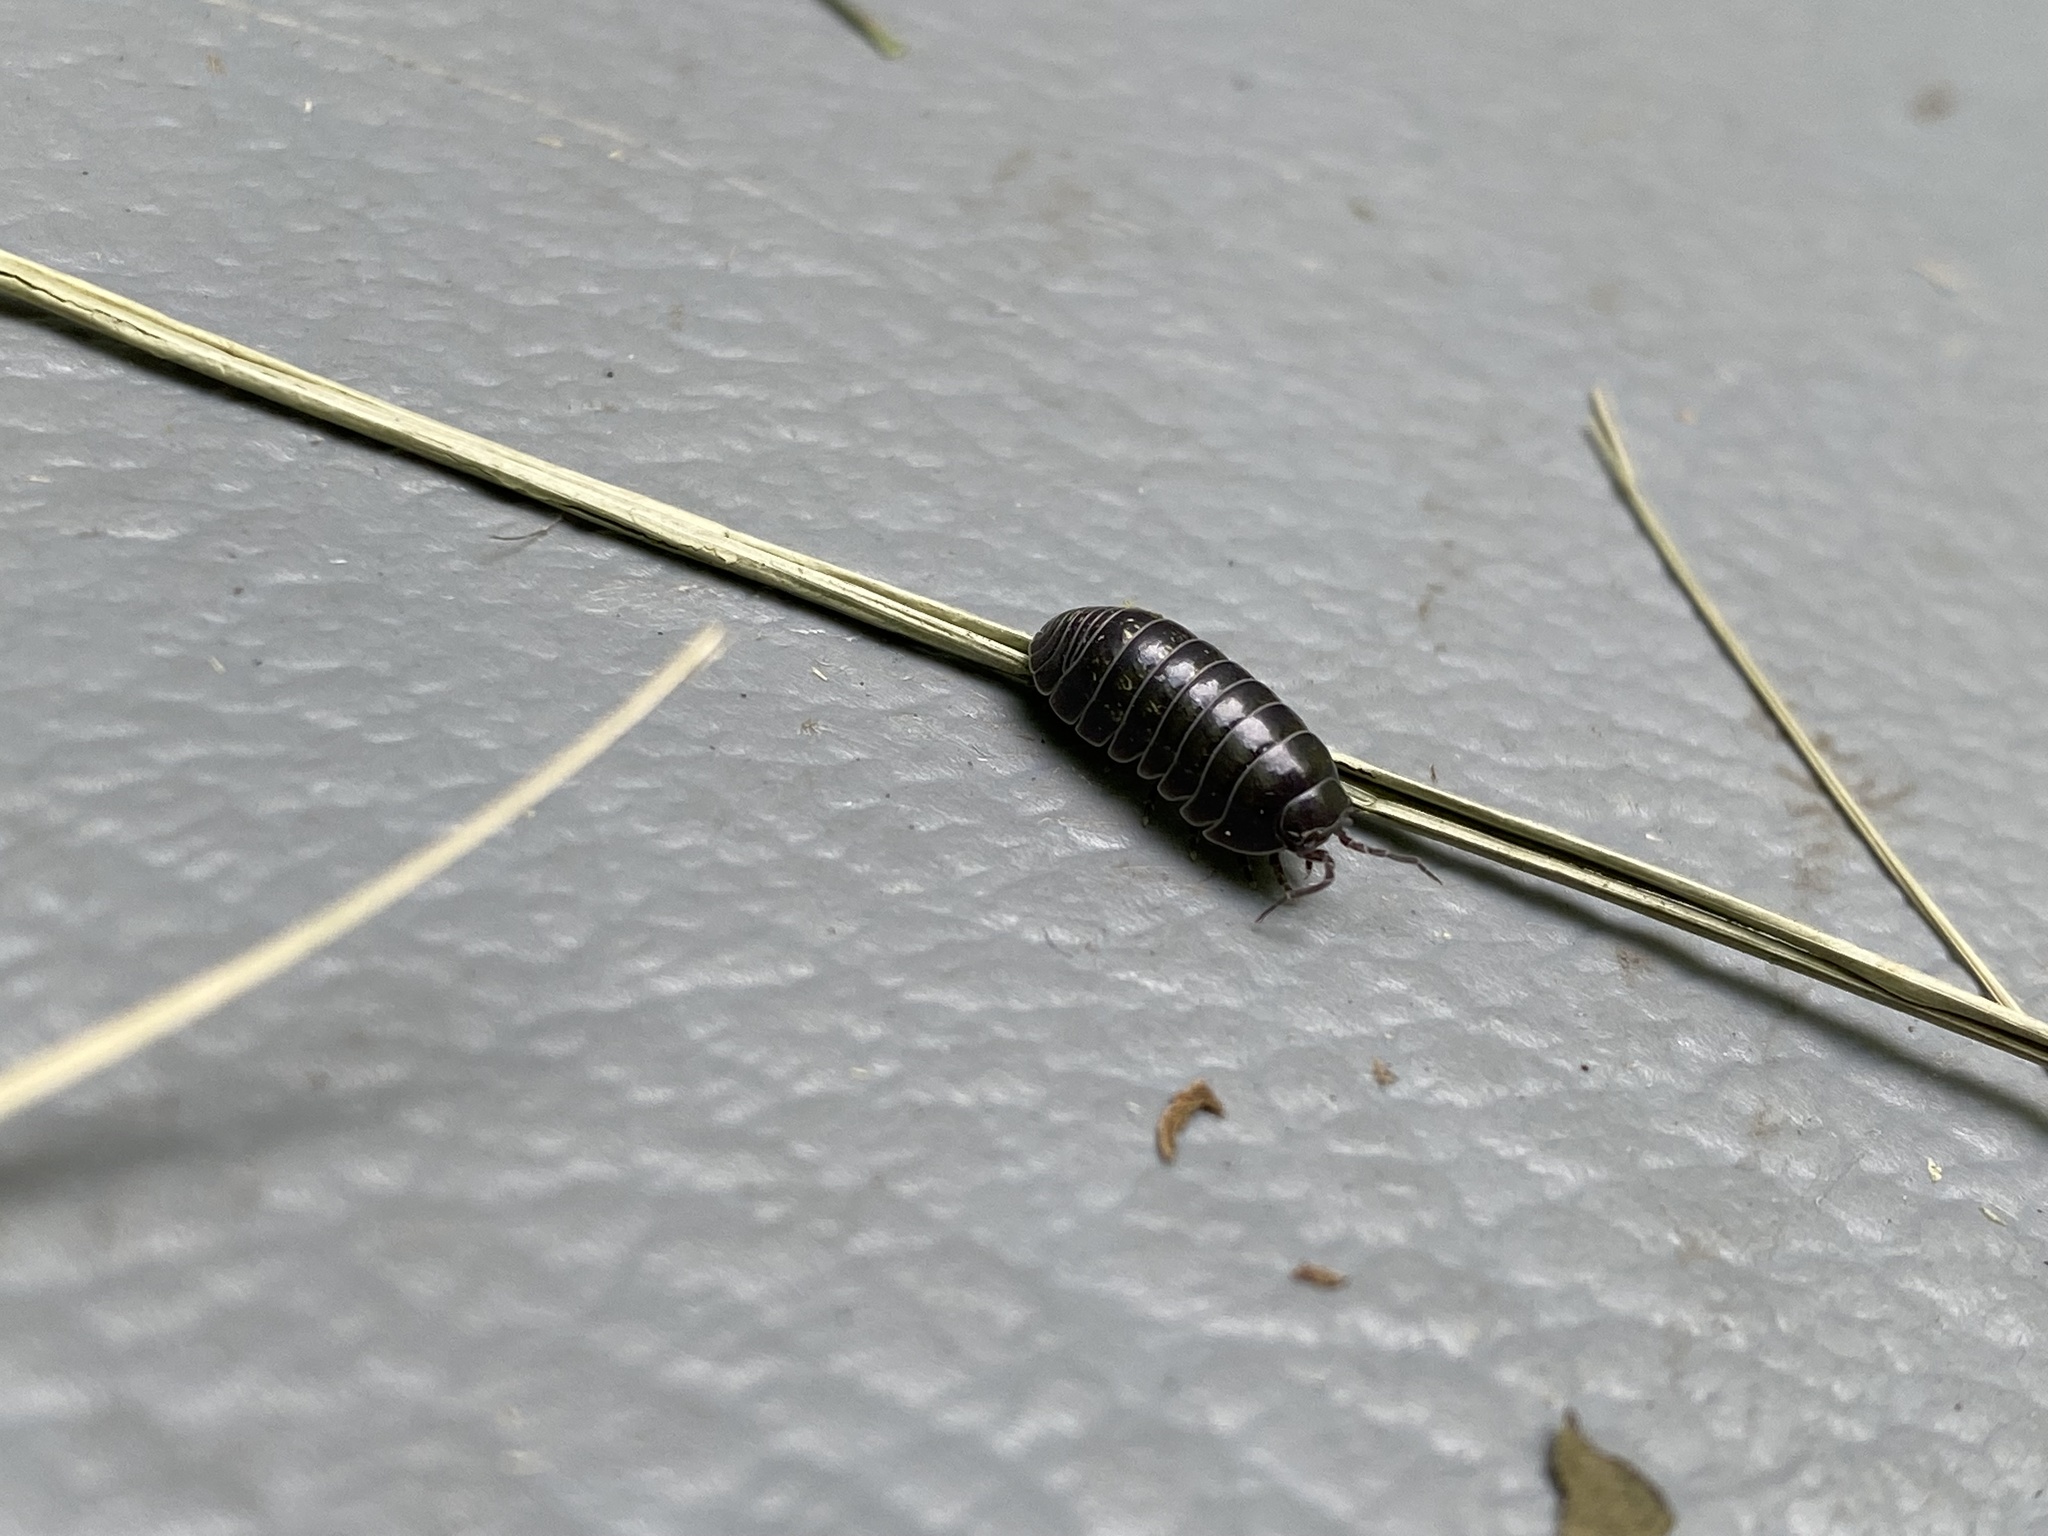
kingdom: Animalia
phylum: Arthropoda
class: Malacostraca
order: Isopoda
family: Armadillidiidae
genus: Armadillidium
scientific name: Armadillidium vulgare
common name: Common pill woodlouse
